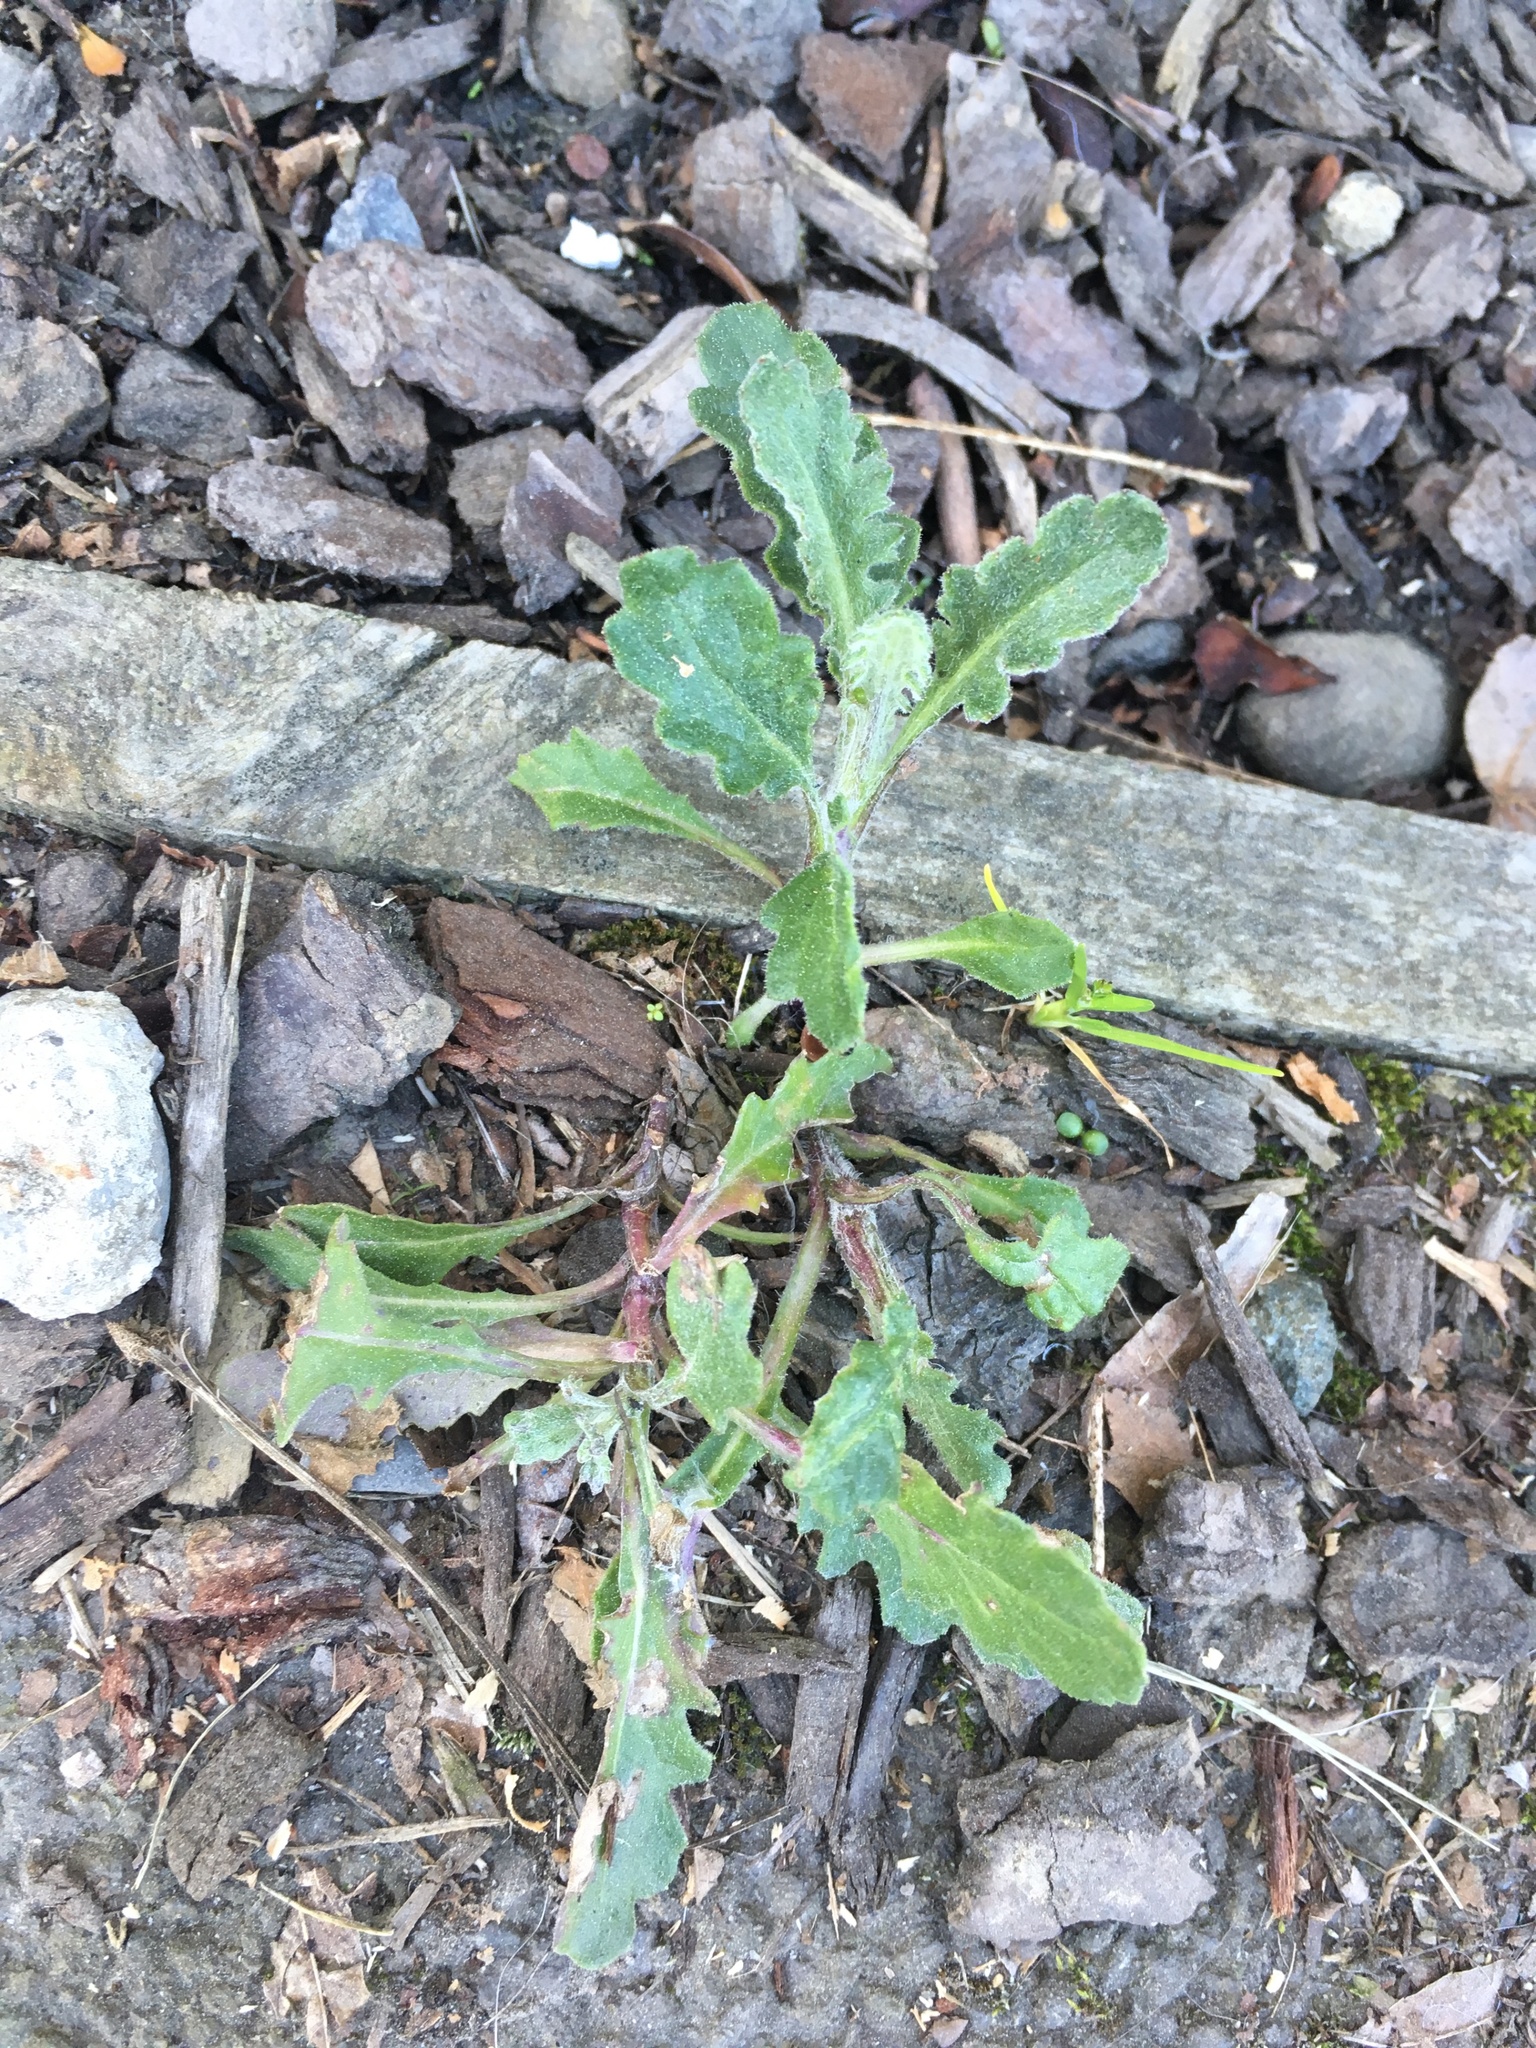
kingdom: Plantae
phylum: Tracheophyta
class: Magnoliopsida
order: Asterales
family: Asteraceae
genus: Senecio
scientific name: Senecio glomeratus
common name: Cutleaf burnweed
